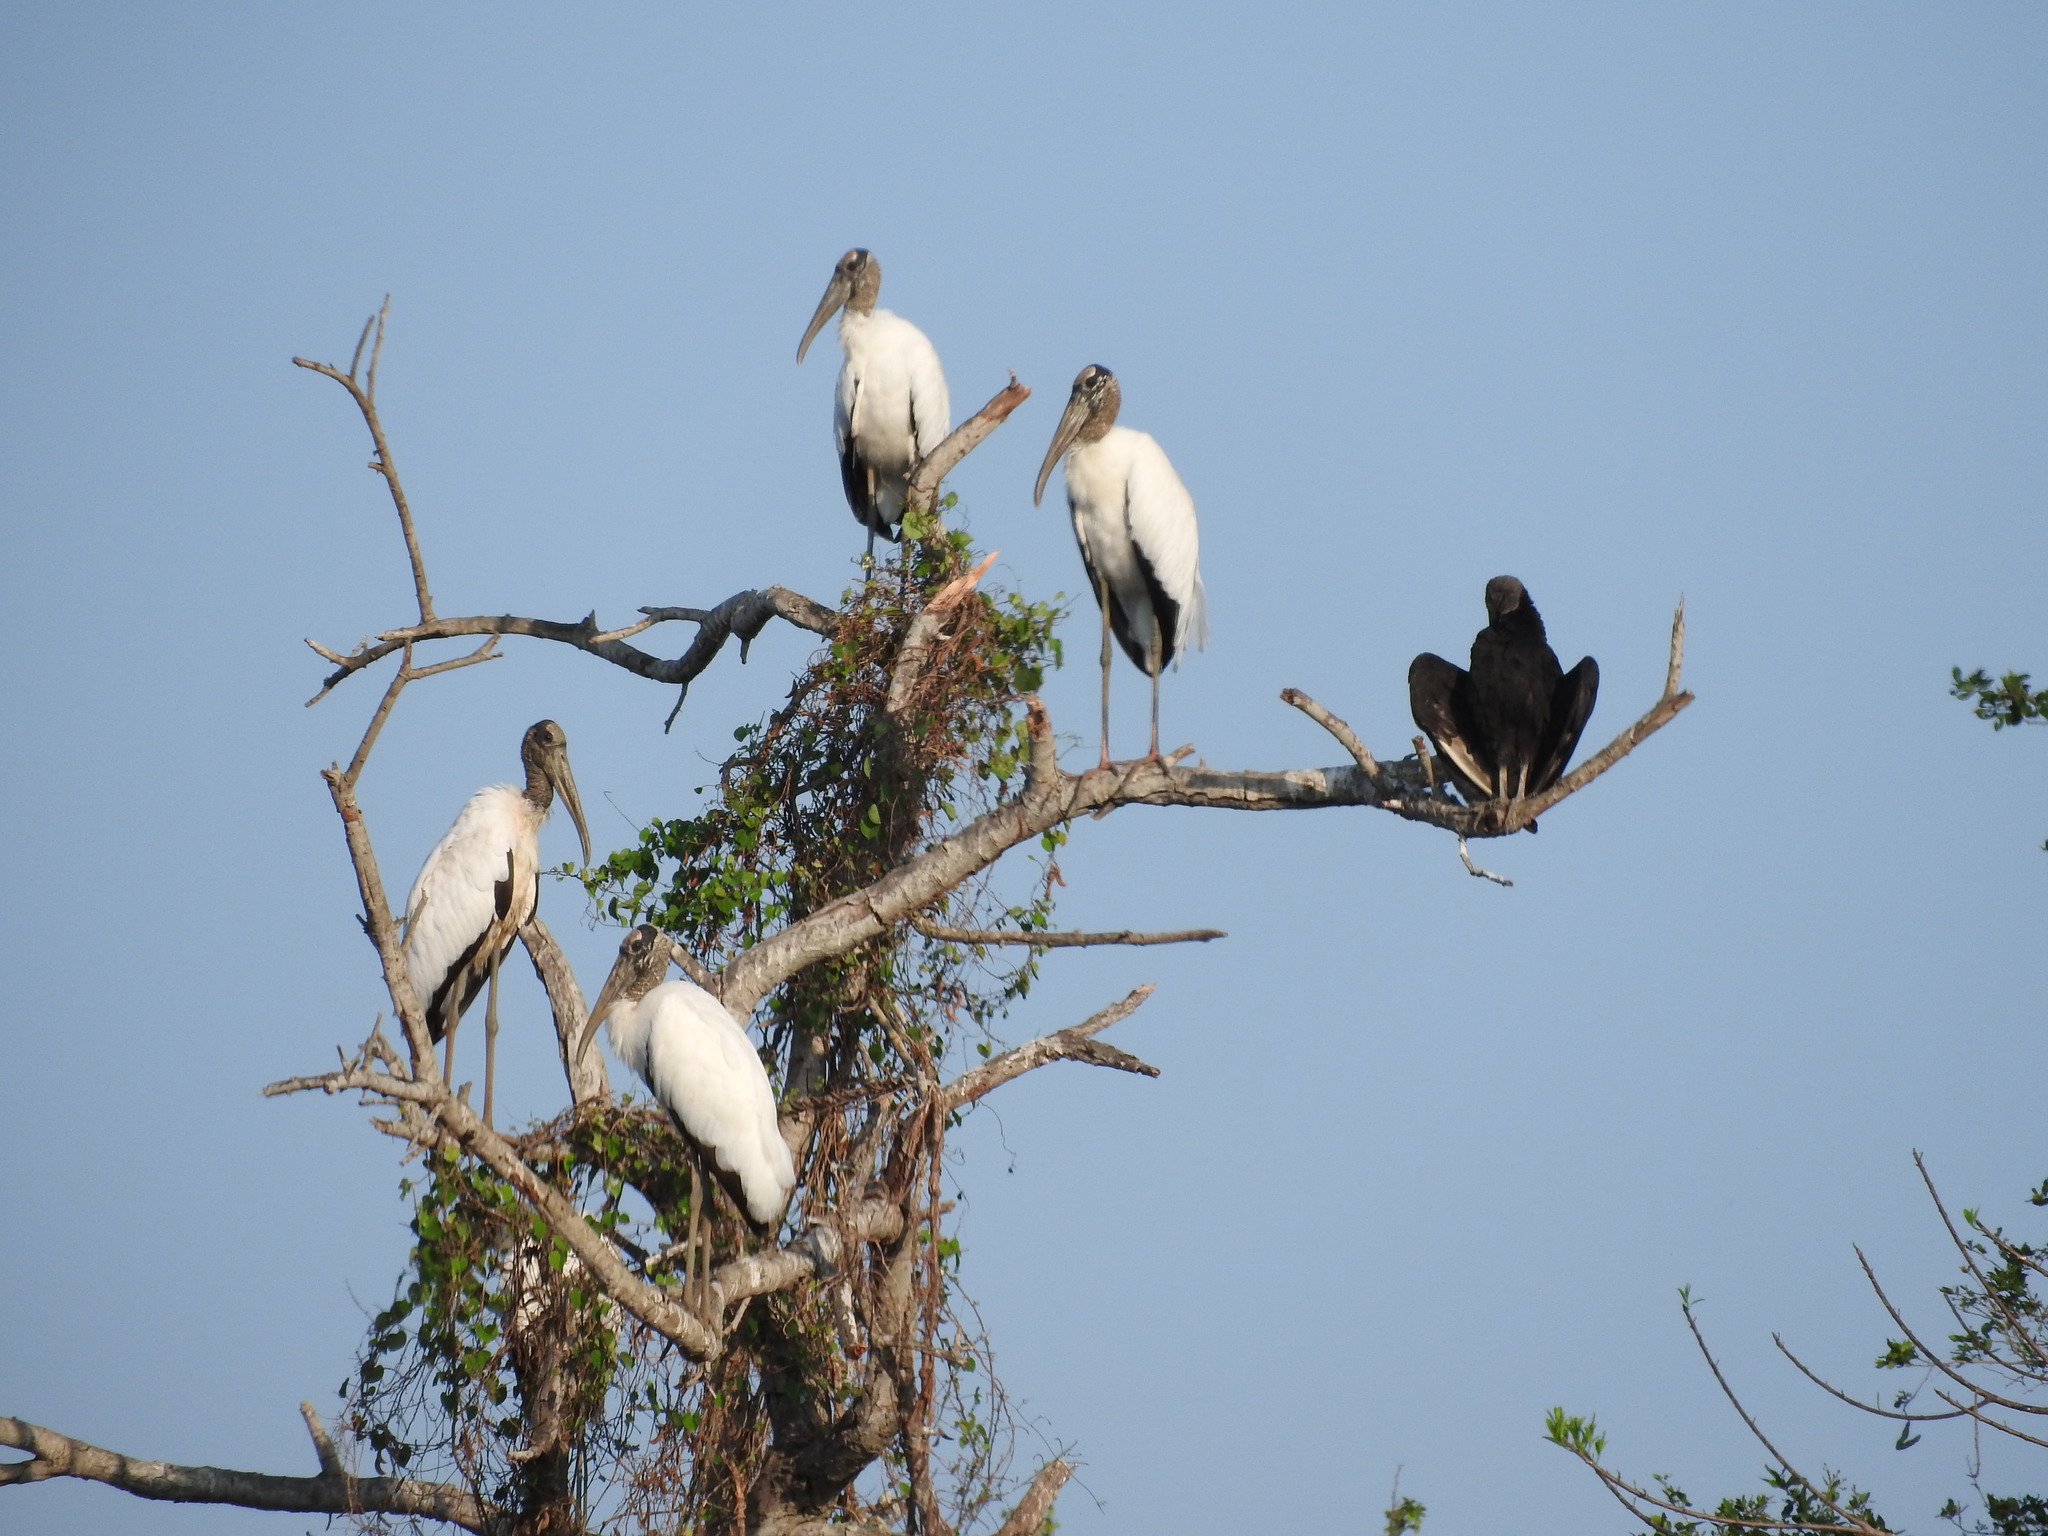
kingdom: Animalia
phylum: Chordata
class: Aves
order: Accipitriformes
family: Cathartidae
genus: Coragyps
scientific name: Coragyps atratus
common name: Black vulture
